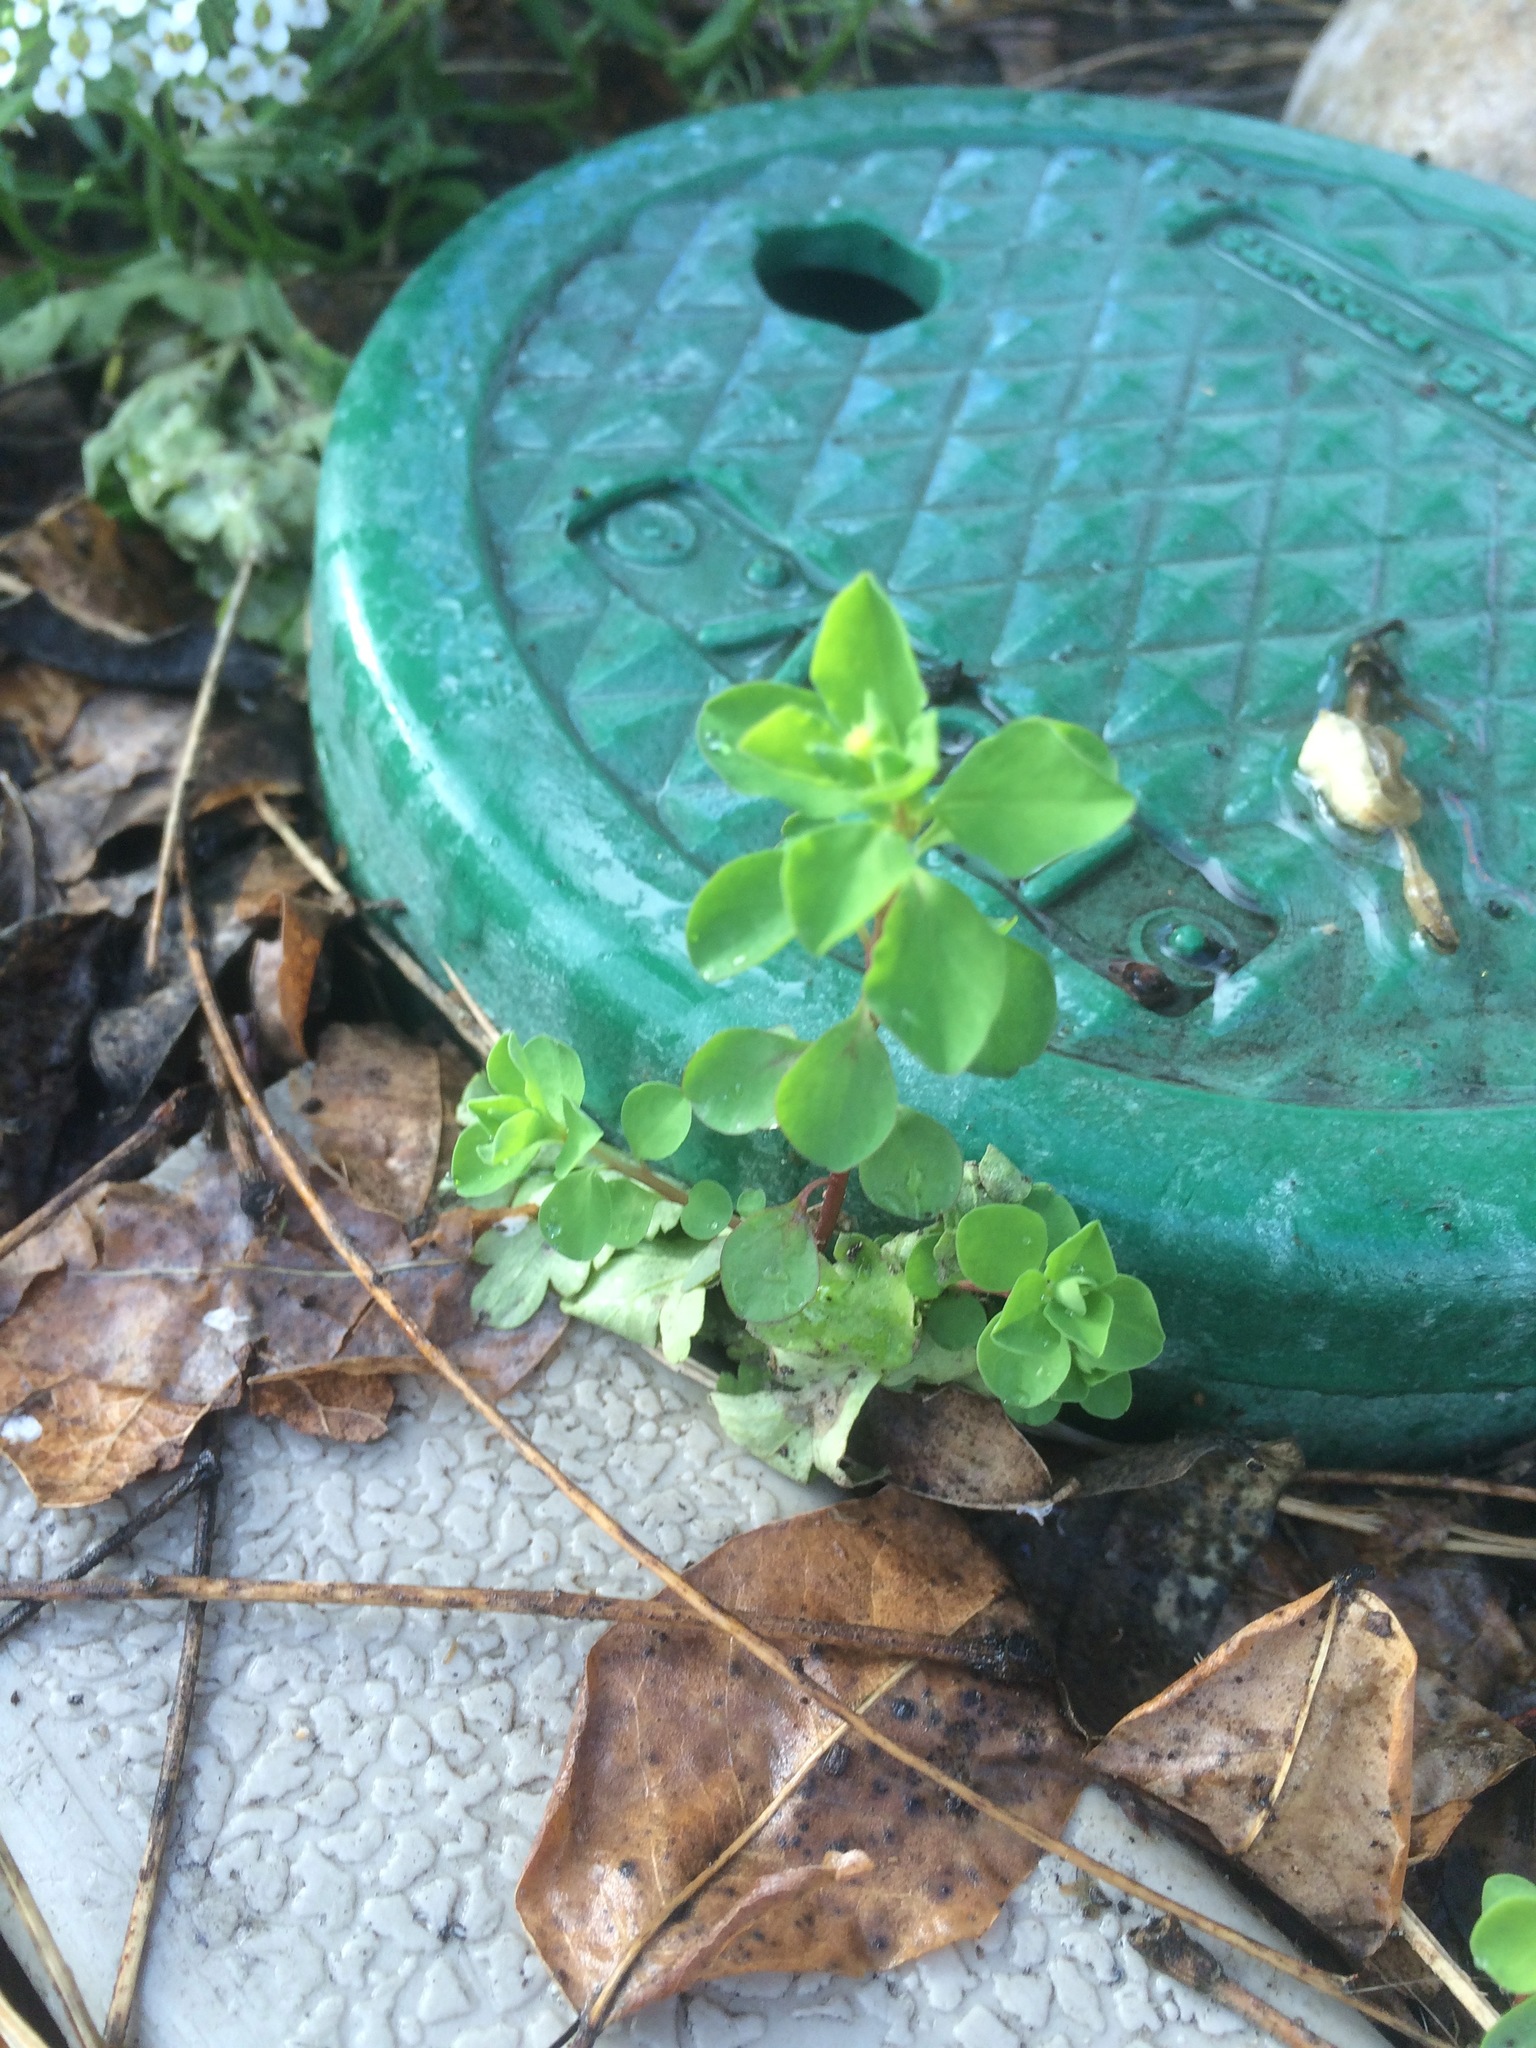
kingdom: Plantae
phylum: Tracheophyta
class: Magnoliopsida
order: Malpighiales
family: Euphorbiaceae
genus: Euphorbia
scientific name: Euphorbia peplus
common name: Petty spurge
